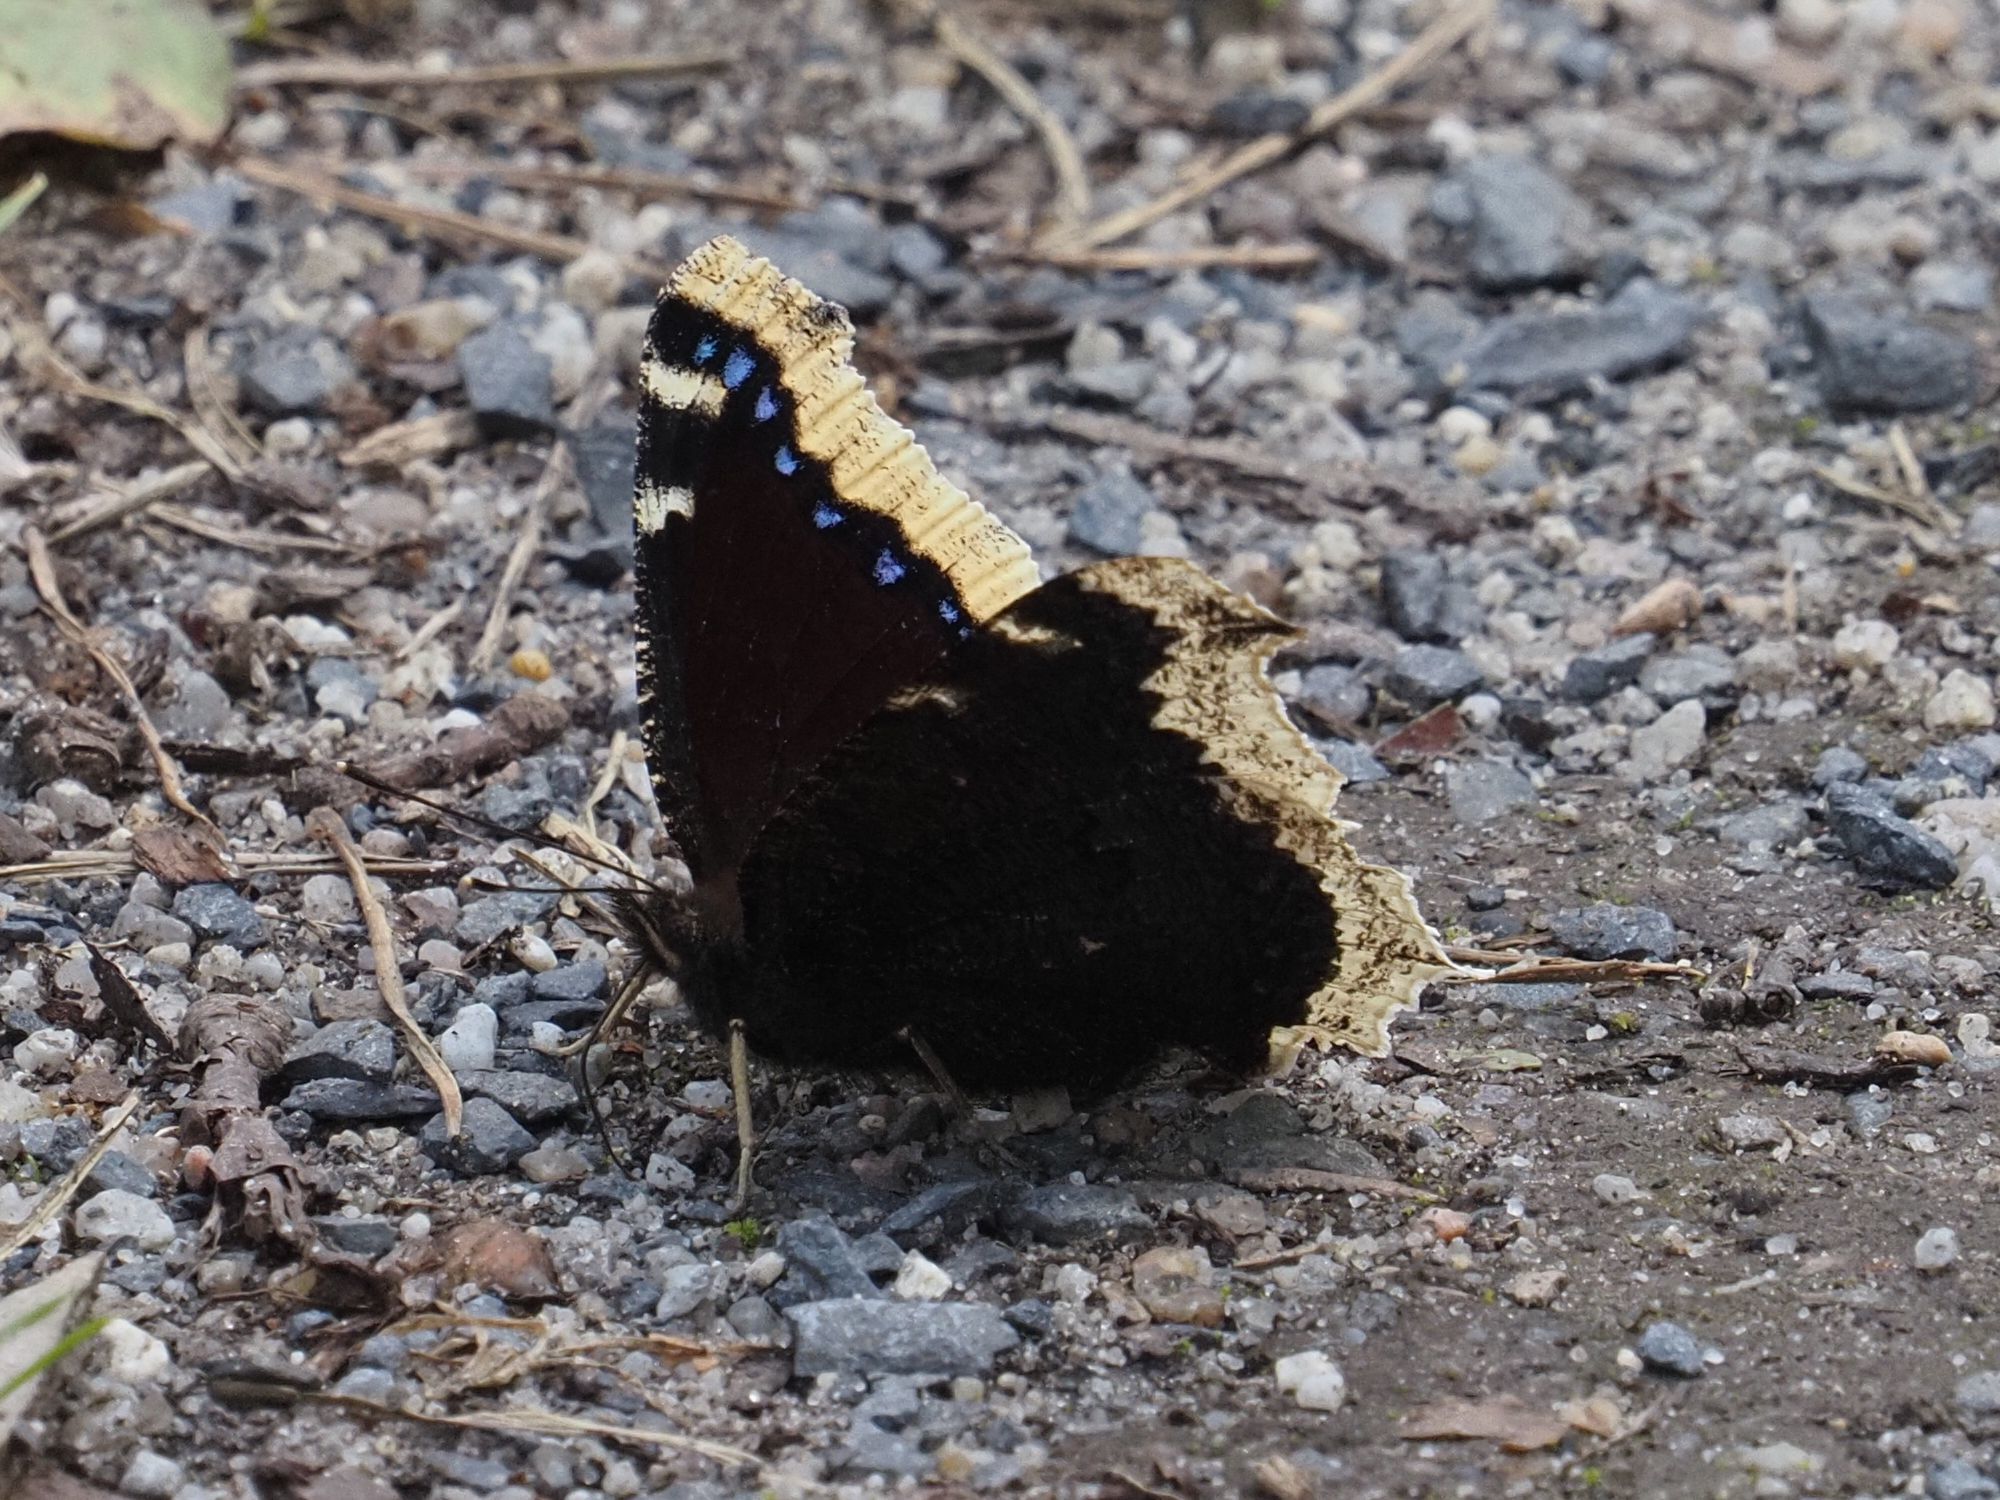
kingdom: Animalia
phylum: Arthropoda
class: Insecta
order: Lepidoptera
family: Nymphalidae
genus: Nymphalis
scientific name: Nymphalis antiopa
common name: Camberwell beauty
